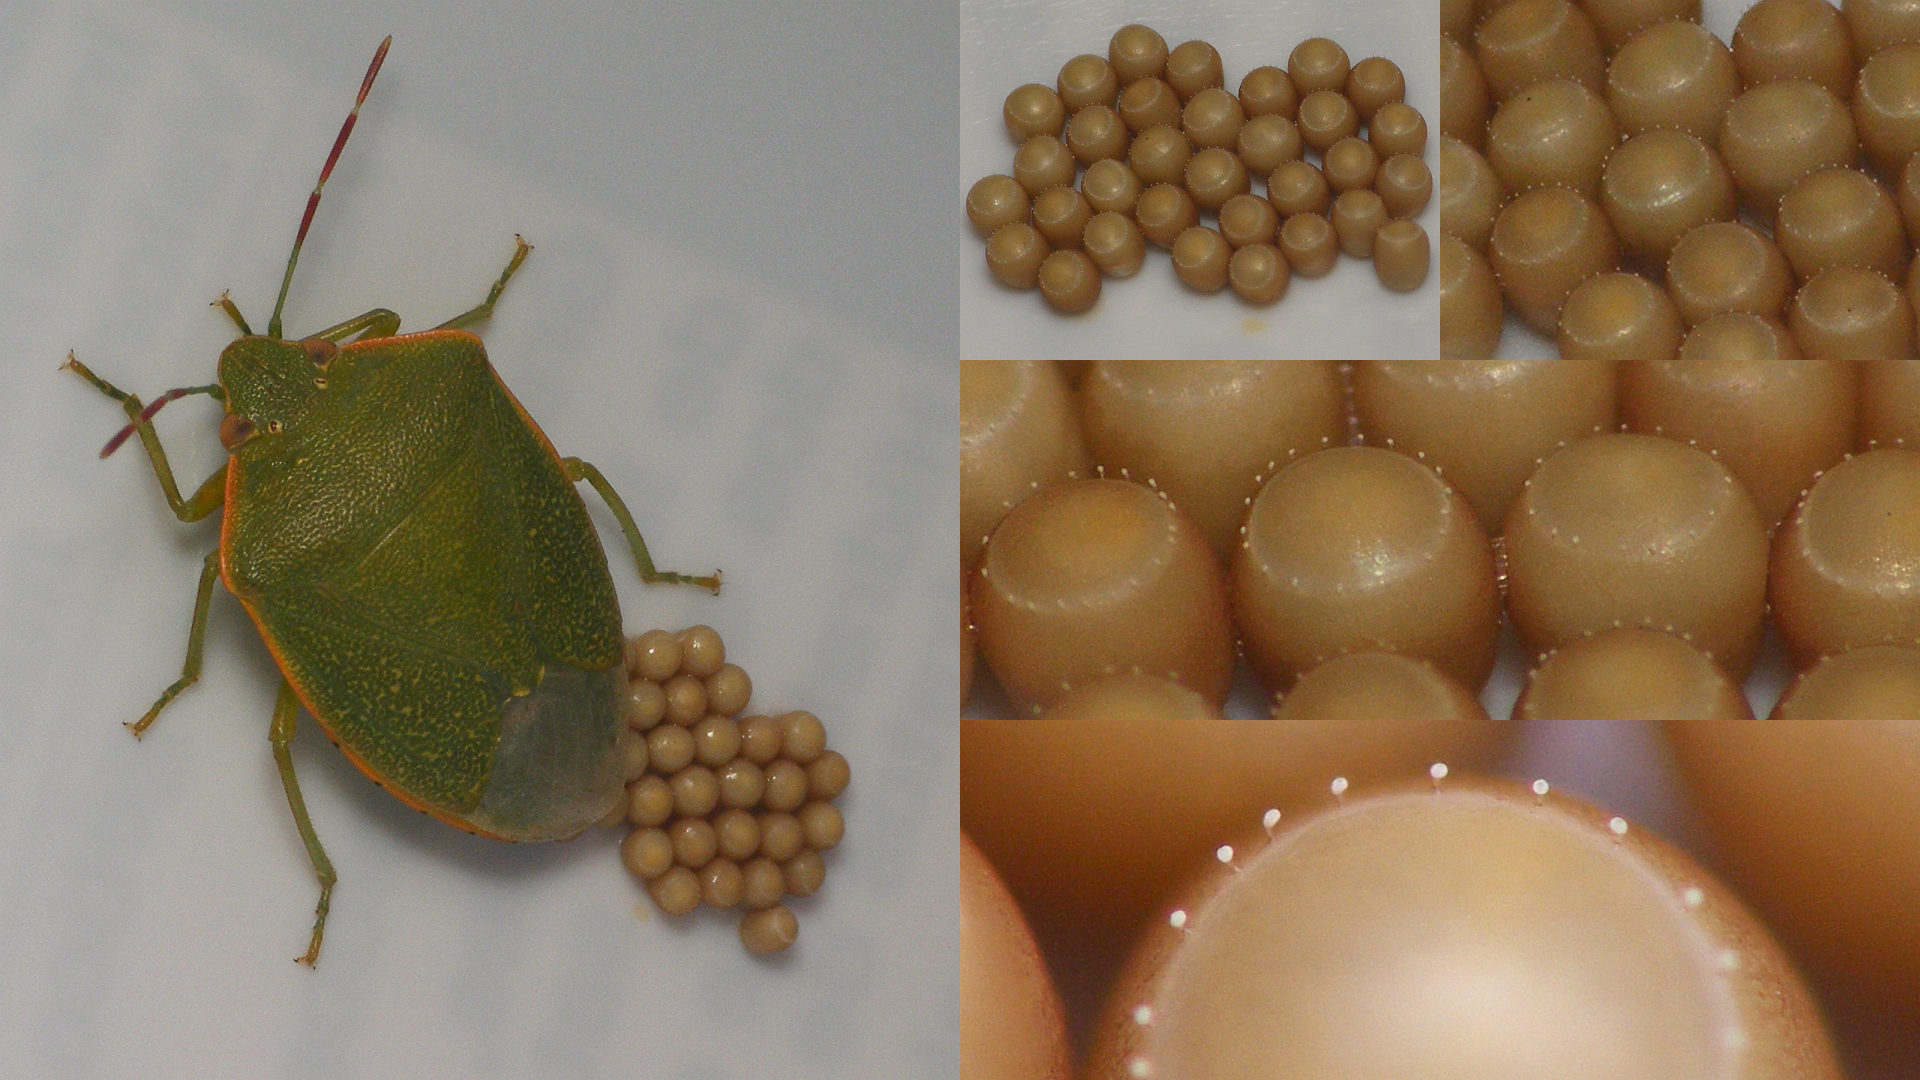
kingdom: Animalia
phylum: Arthropoda
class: Insecta
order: Hemiptera
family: Pentatomidae
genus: Acrosternum
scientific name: Acrosternum rubescens
